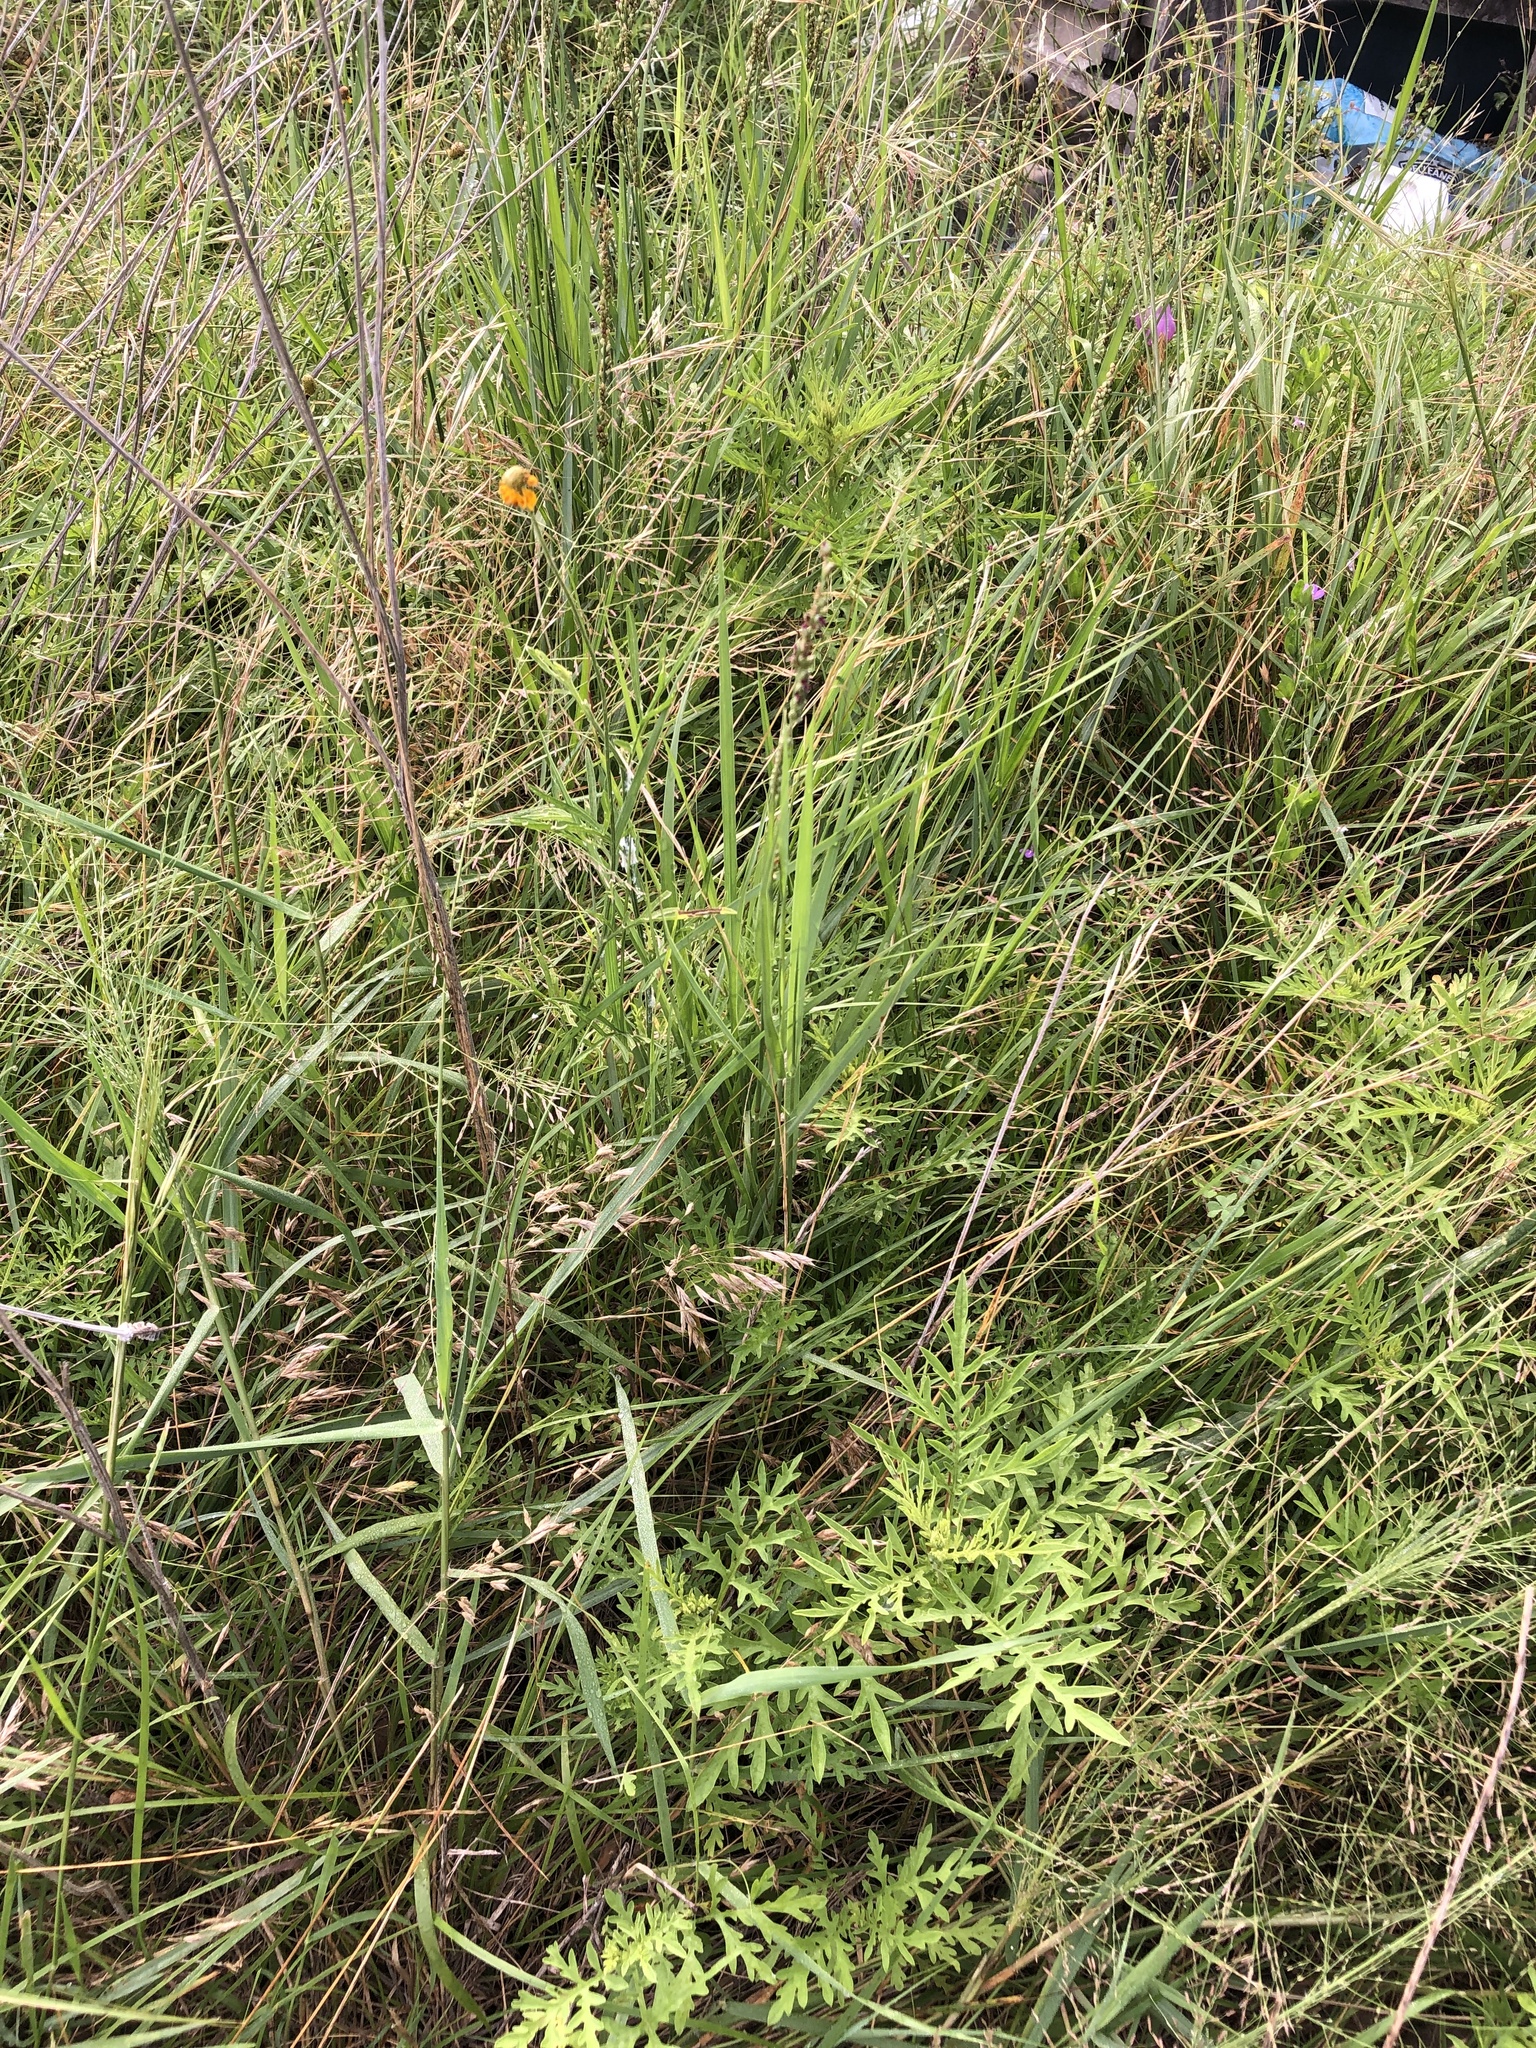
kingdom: Plantae
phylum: Tracheophyta
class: Liliopsida
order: Poales
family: Poaceae
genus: Hopia
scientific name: Hopia obtusa
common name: Vine-mesquite
